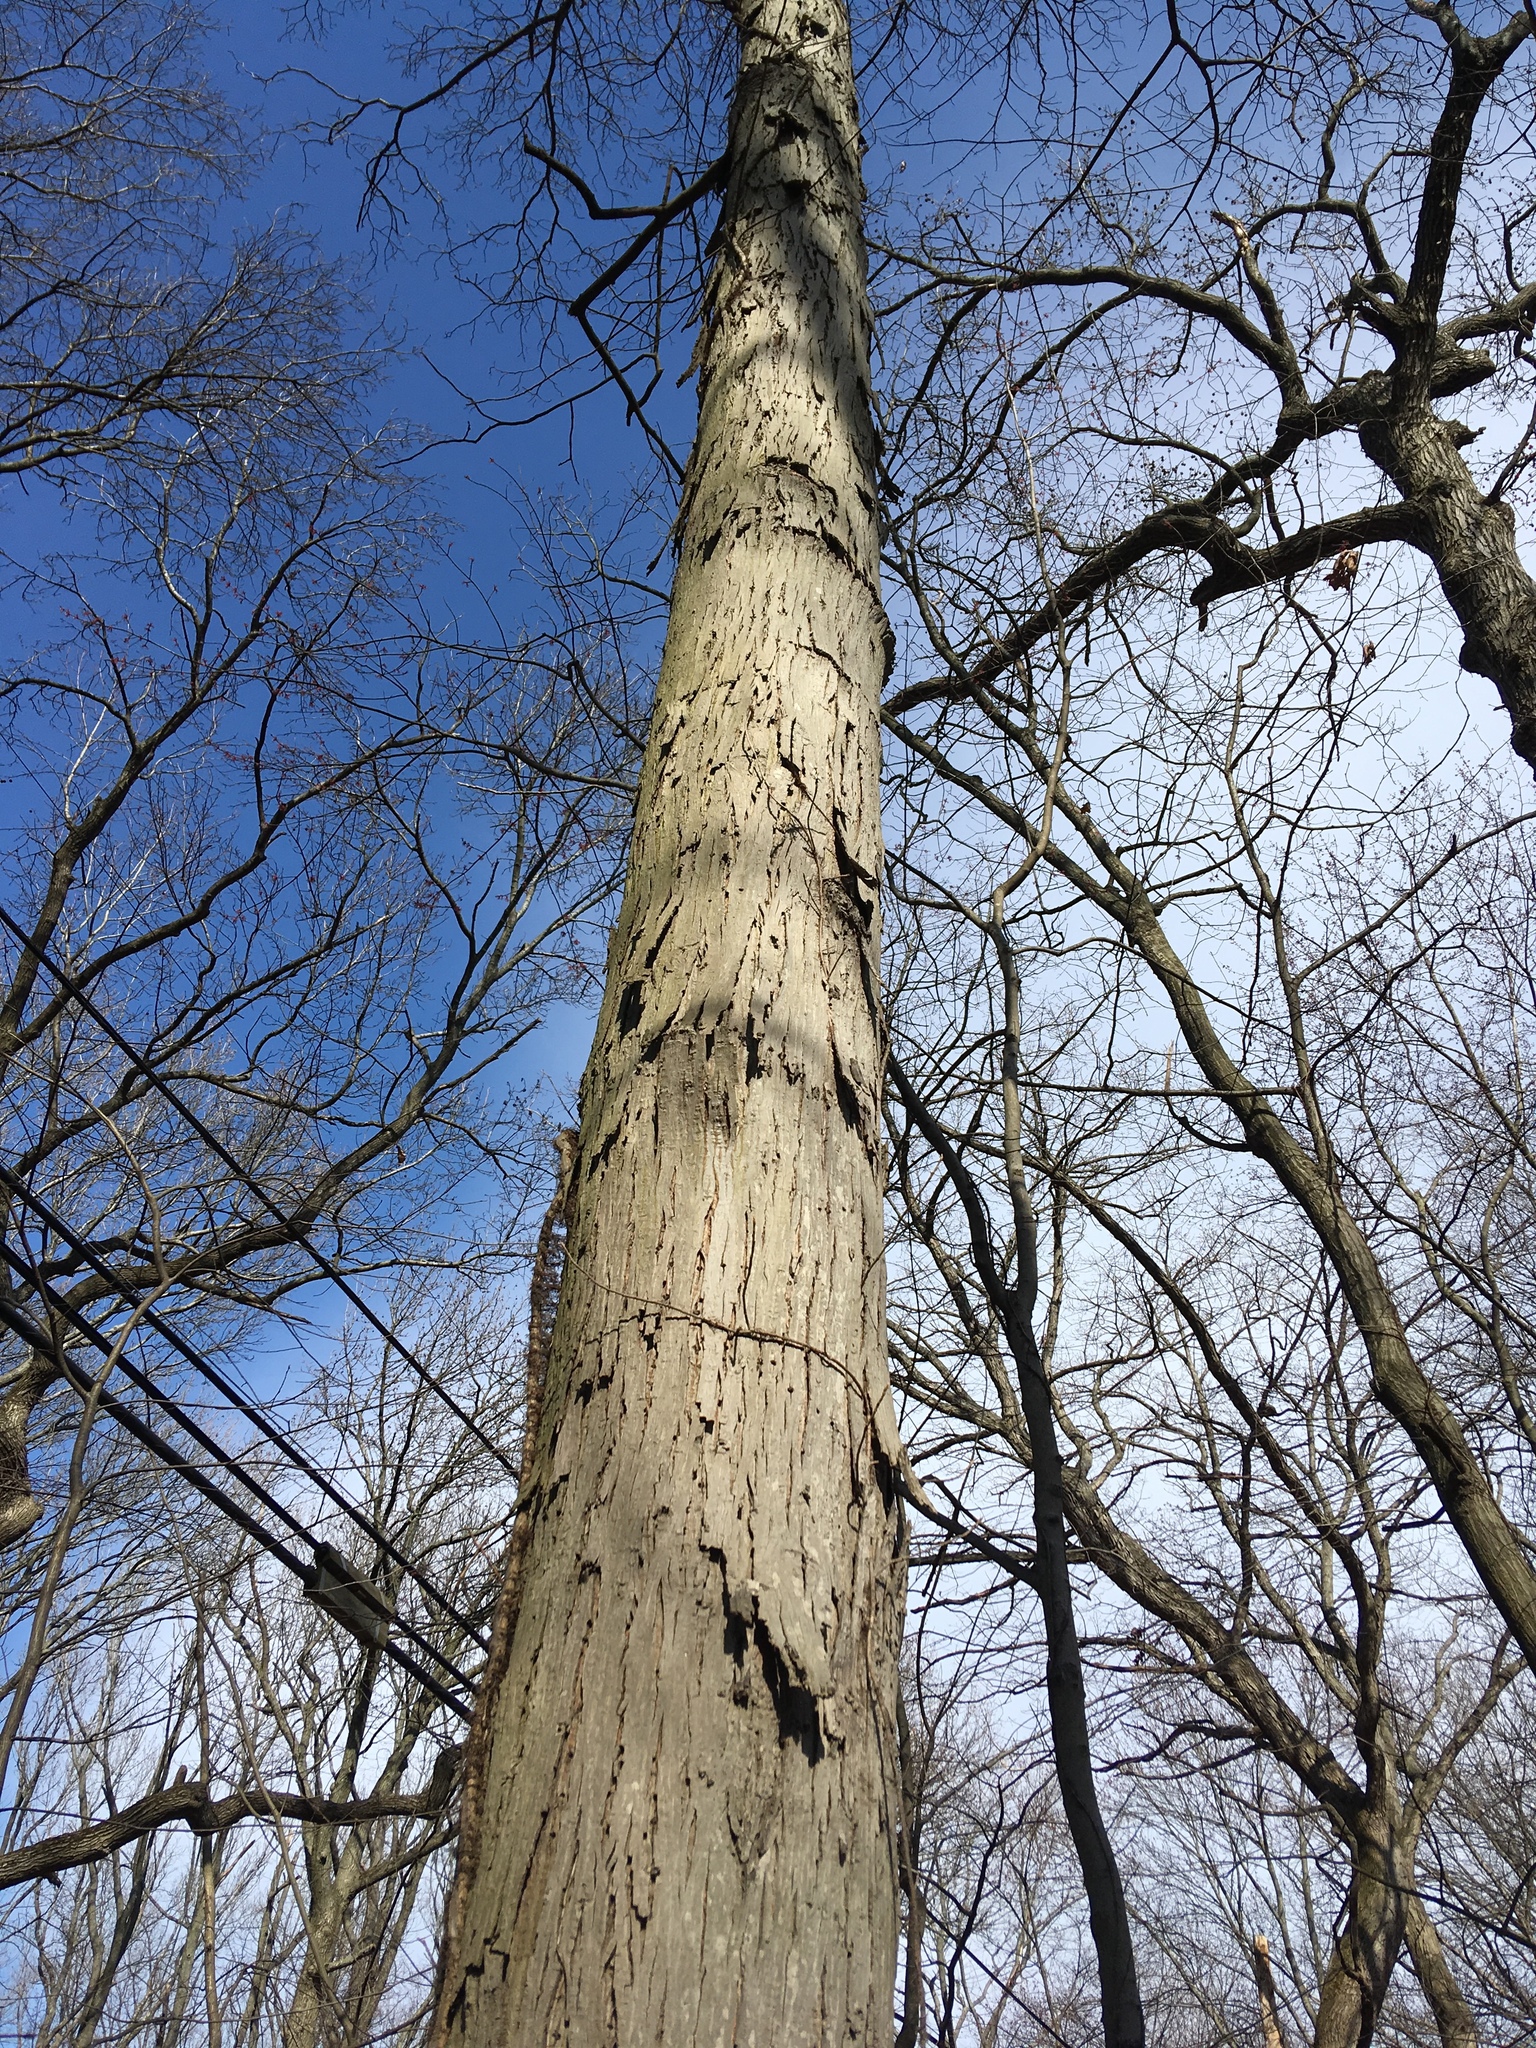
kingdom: Plantae
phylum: Tracheophyta
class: Magnoliopsida
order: Fagales
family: Juglandaceae
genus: Carya
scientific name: Carya ovata
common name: Shagbark hickory
